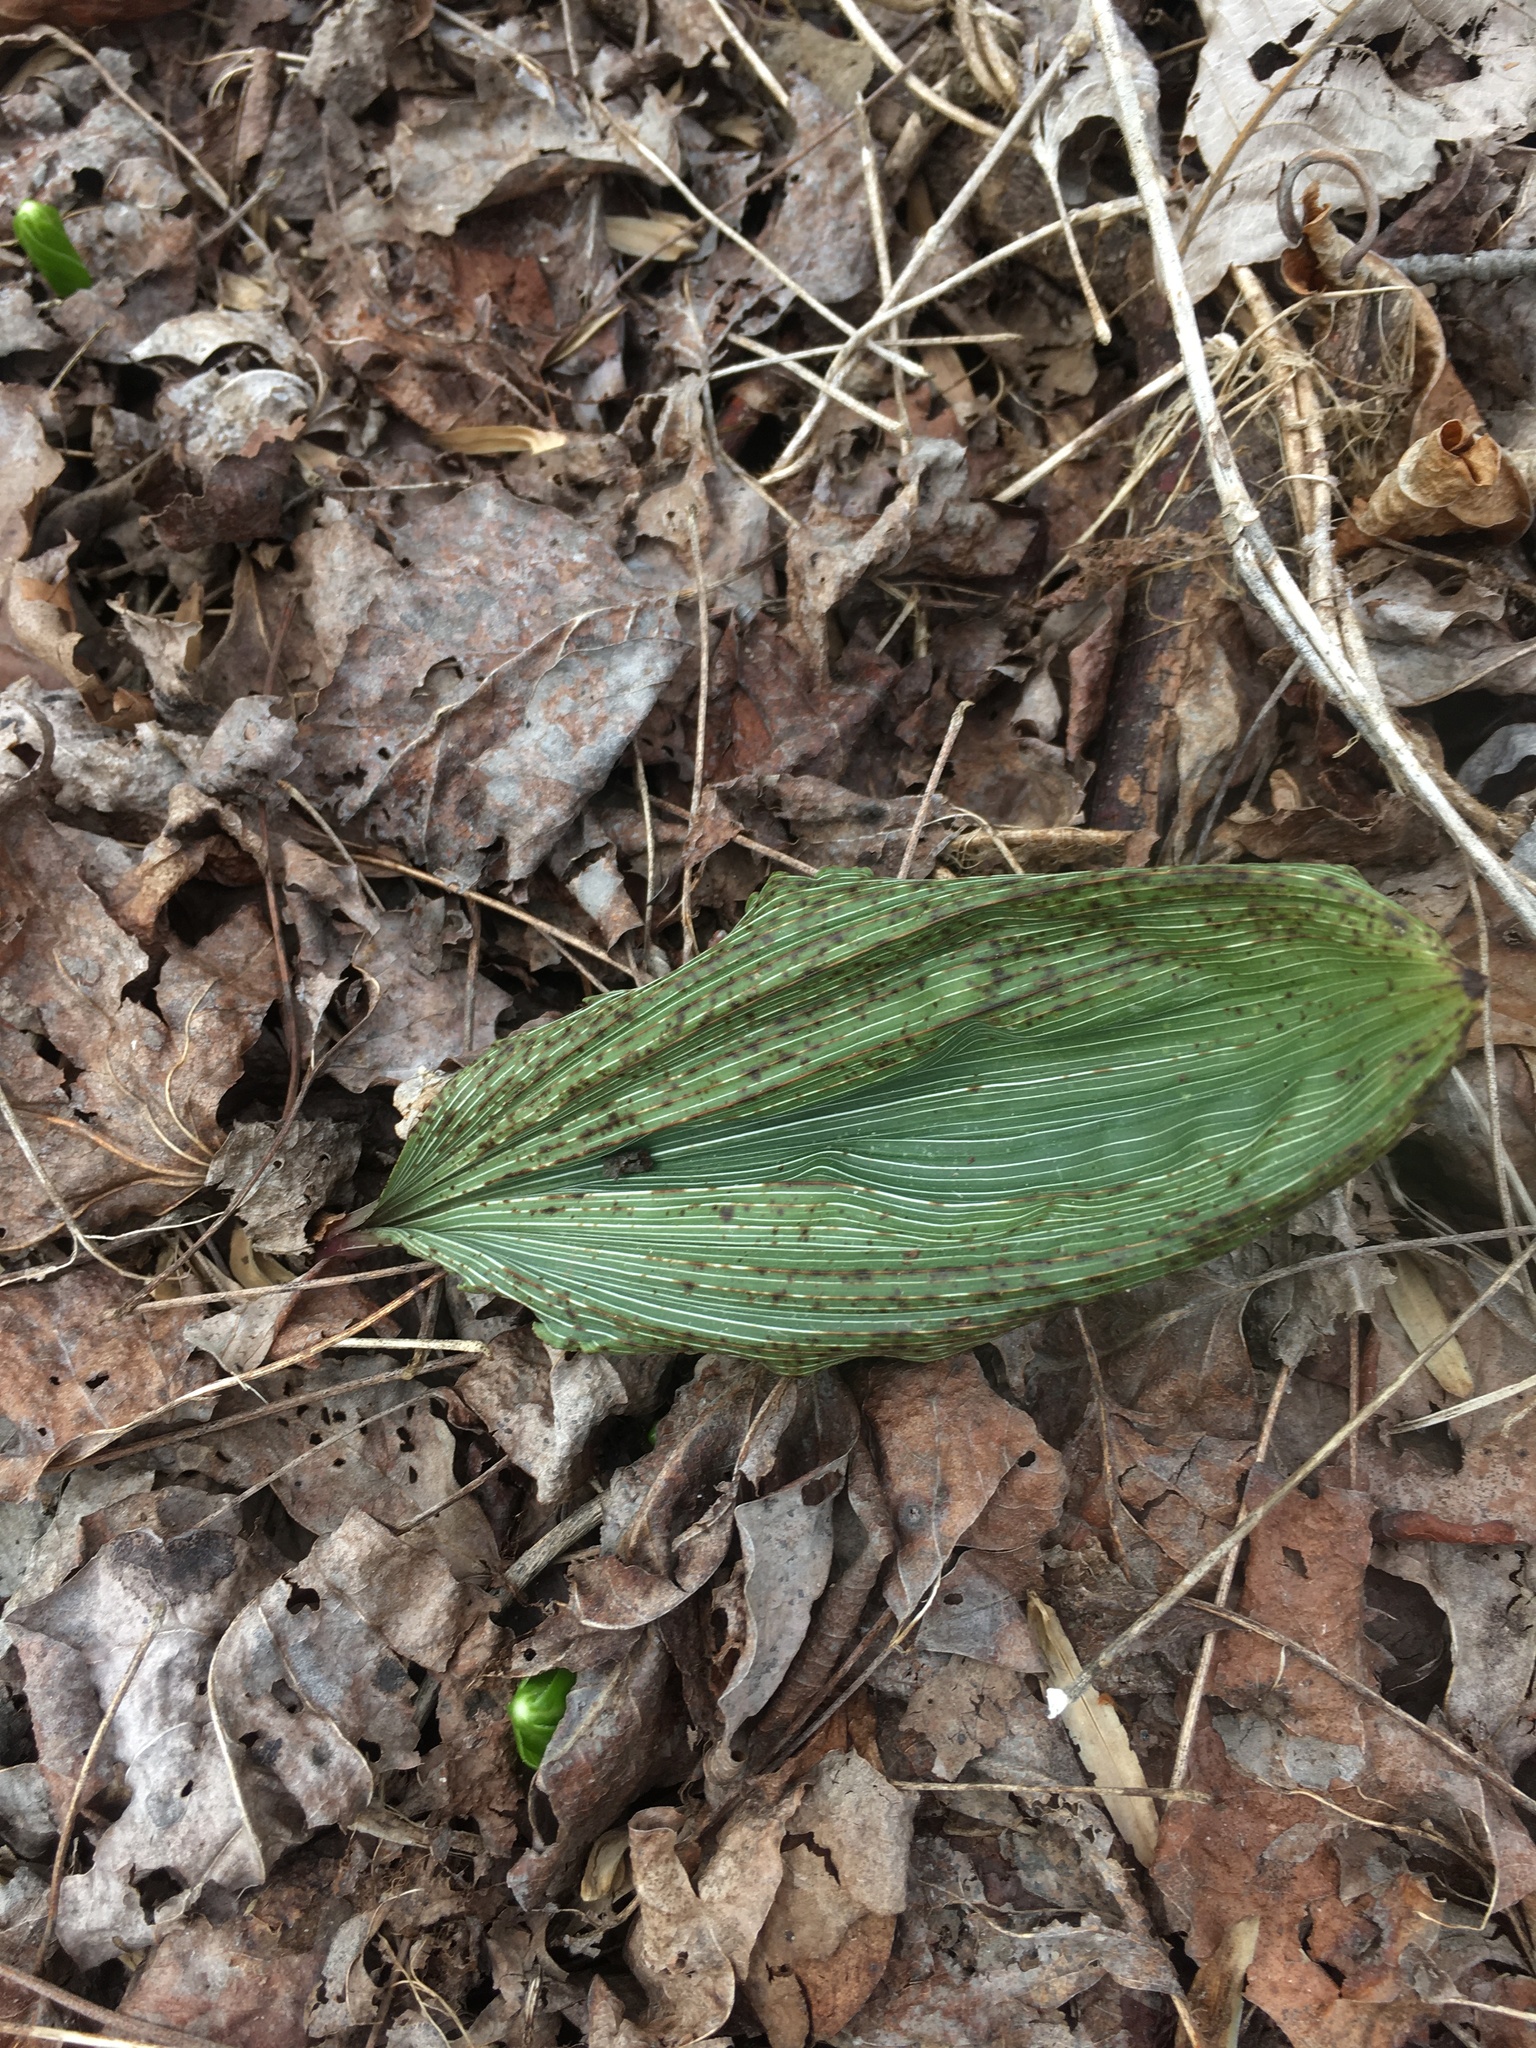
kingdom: Plantae
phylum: Tracheophyta
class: Liliopsida
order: Asparagales
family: Orchidaceae
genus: Aplectrum
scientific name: Aplectrum hyemale
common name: Adam-and-eve
